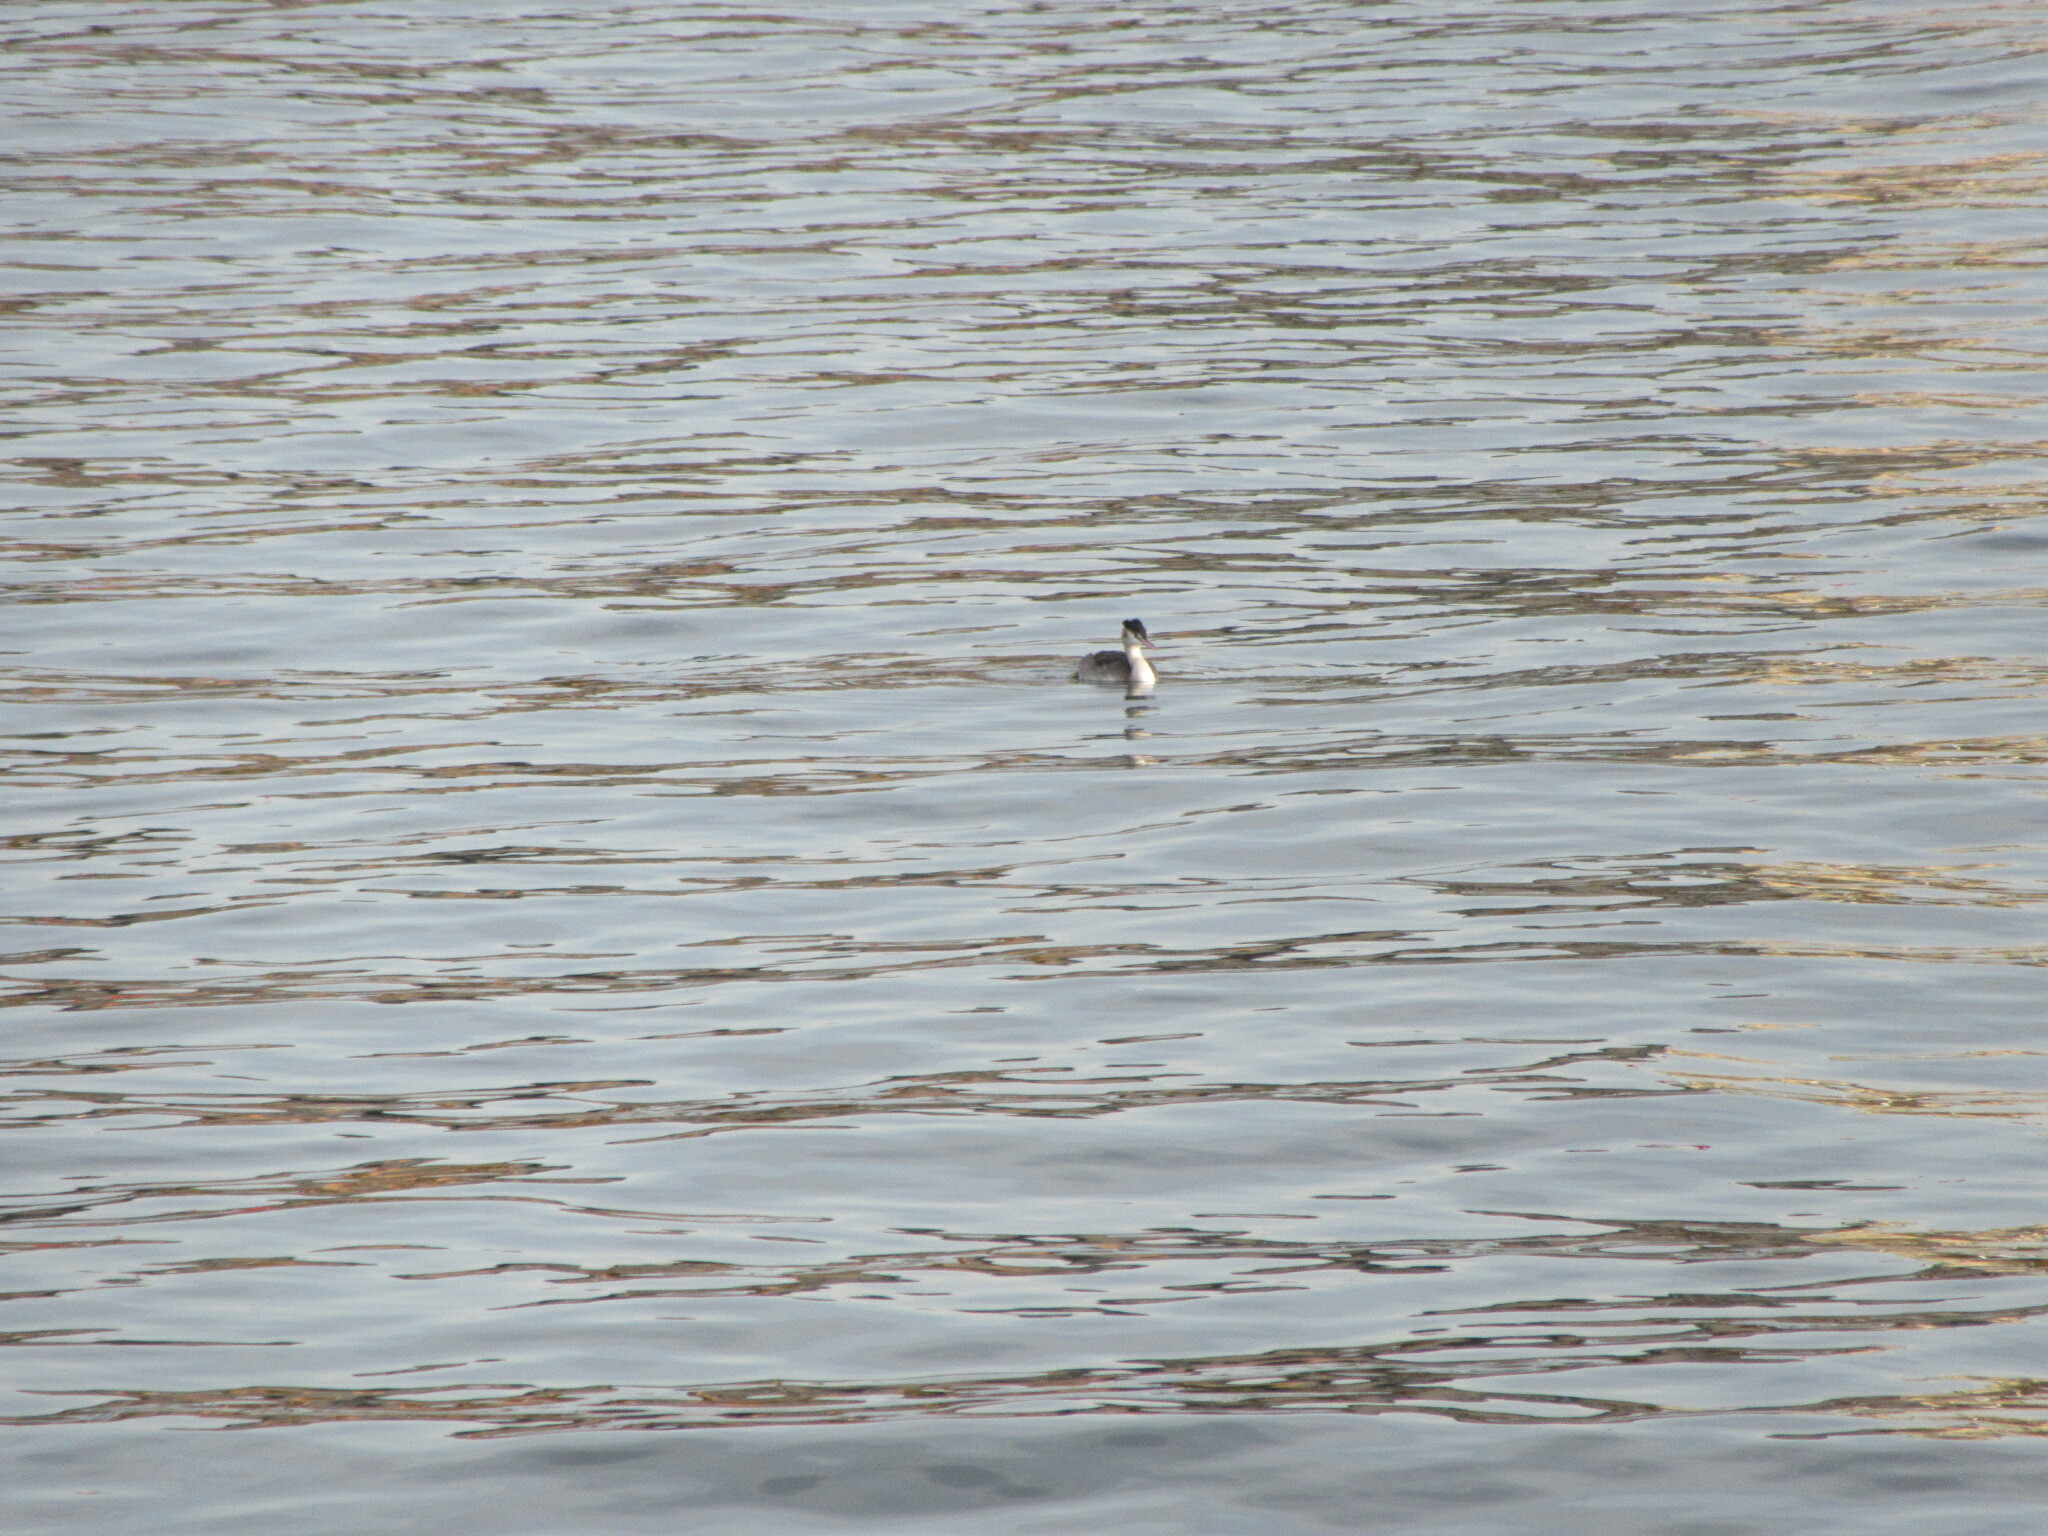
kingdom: Animalia
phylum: Chordata
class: Aves
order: Podicipediformes
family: Podicipedidae
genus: Podiceps
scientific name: Podiceps cristatus
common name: Great crested grebe
